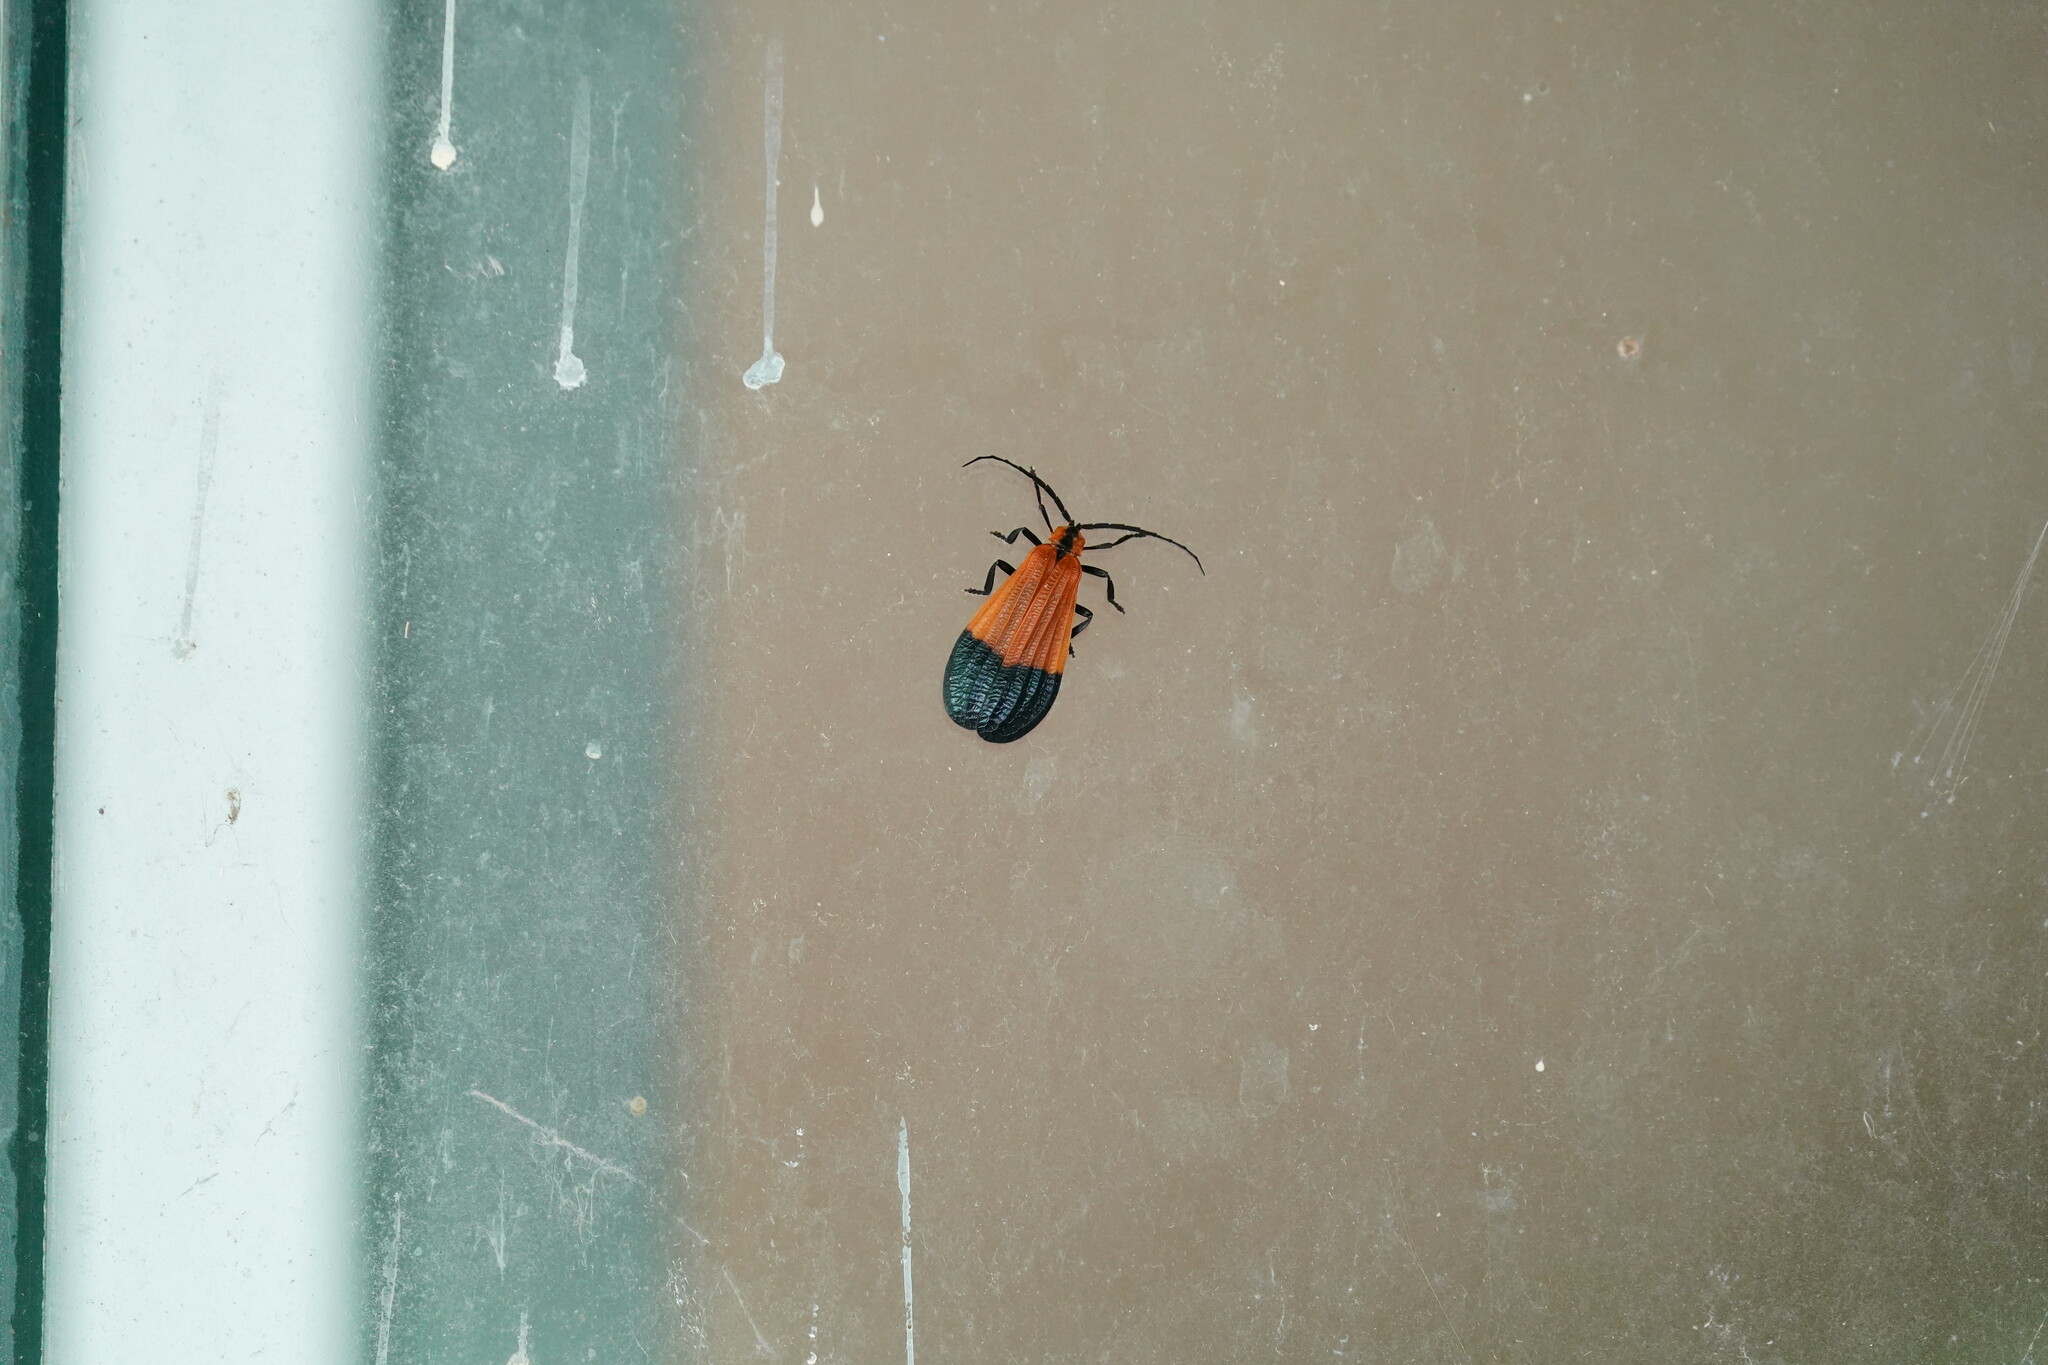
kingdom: Animalia
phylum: Arthropoda
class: Insecta
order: Coleoptera
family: Lycidae
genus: Calopteron
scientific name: Calopteron terminale
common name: End band net-winged beetle
